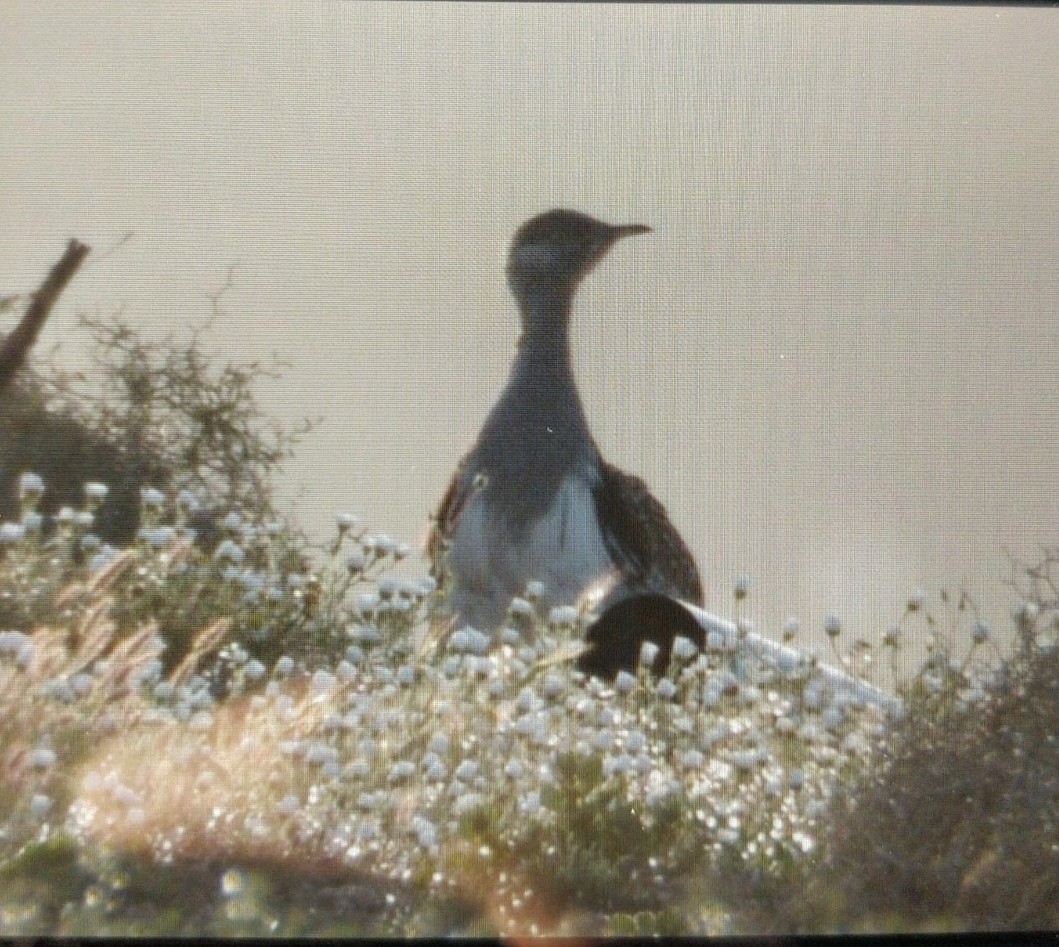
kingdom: Animalia
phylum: Chordata
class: Aves
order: Otidiformes
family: Otididae
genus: Chlamydotis
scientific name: Chlamydotis undulata
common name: Houbara bustard
